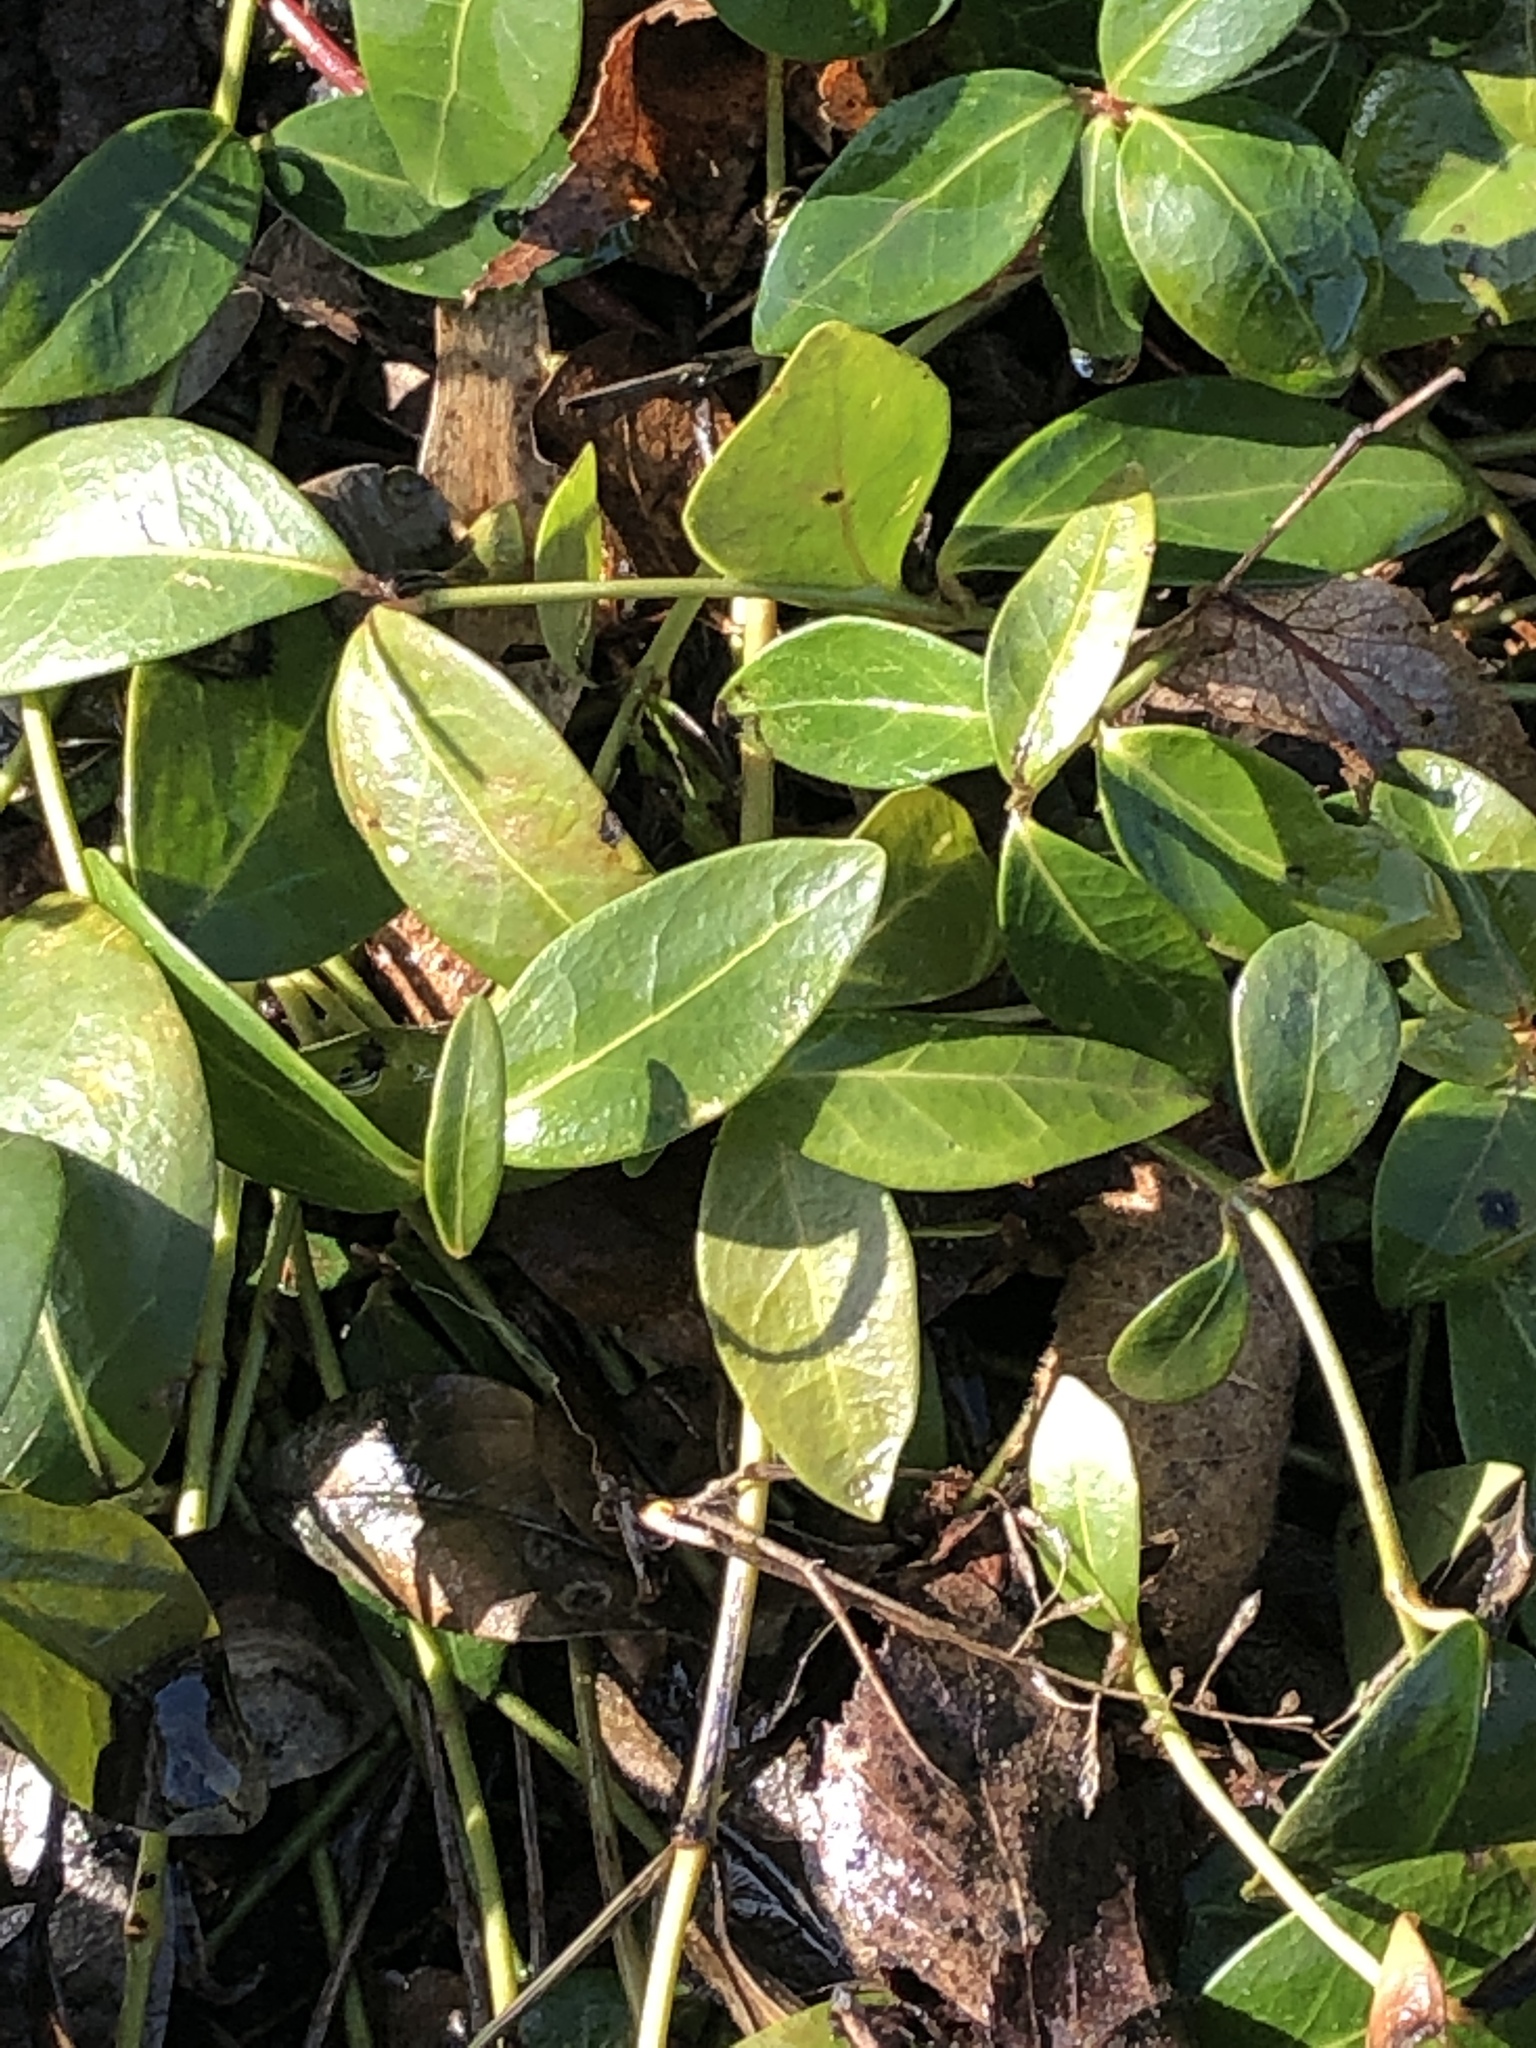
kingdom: Plantae
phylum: Tracheophyta
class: Magnoliopsida
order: Gentianales
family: Apocynaceae
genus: Vinca
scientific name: Vinca minor
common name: Lesser periwinkle
